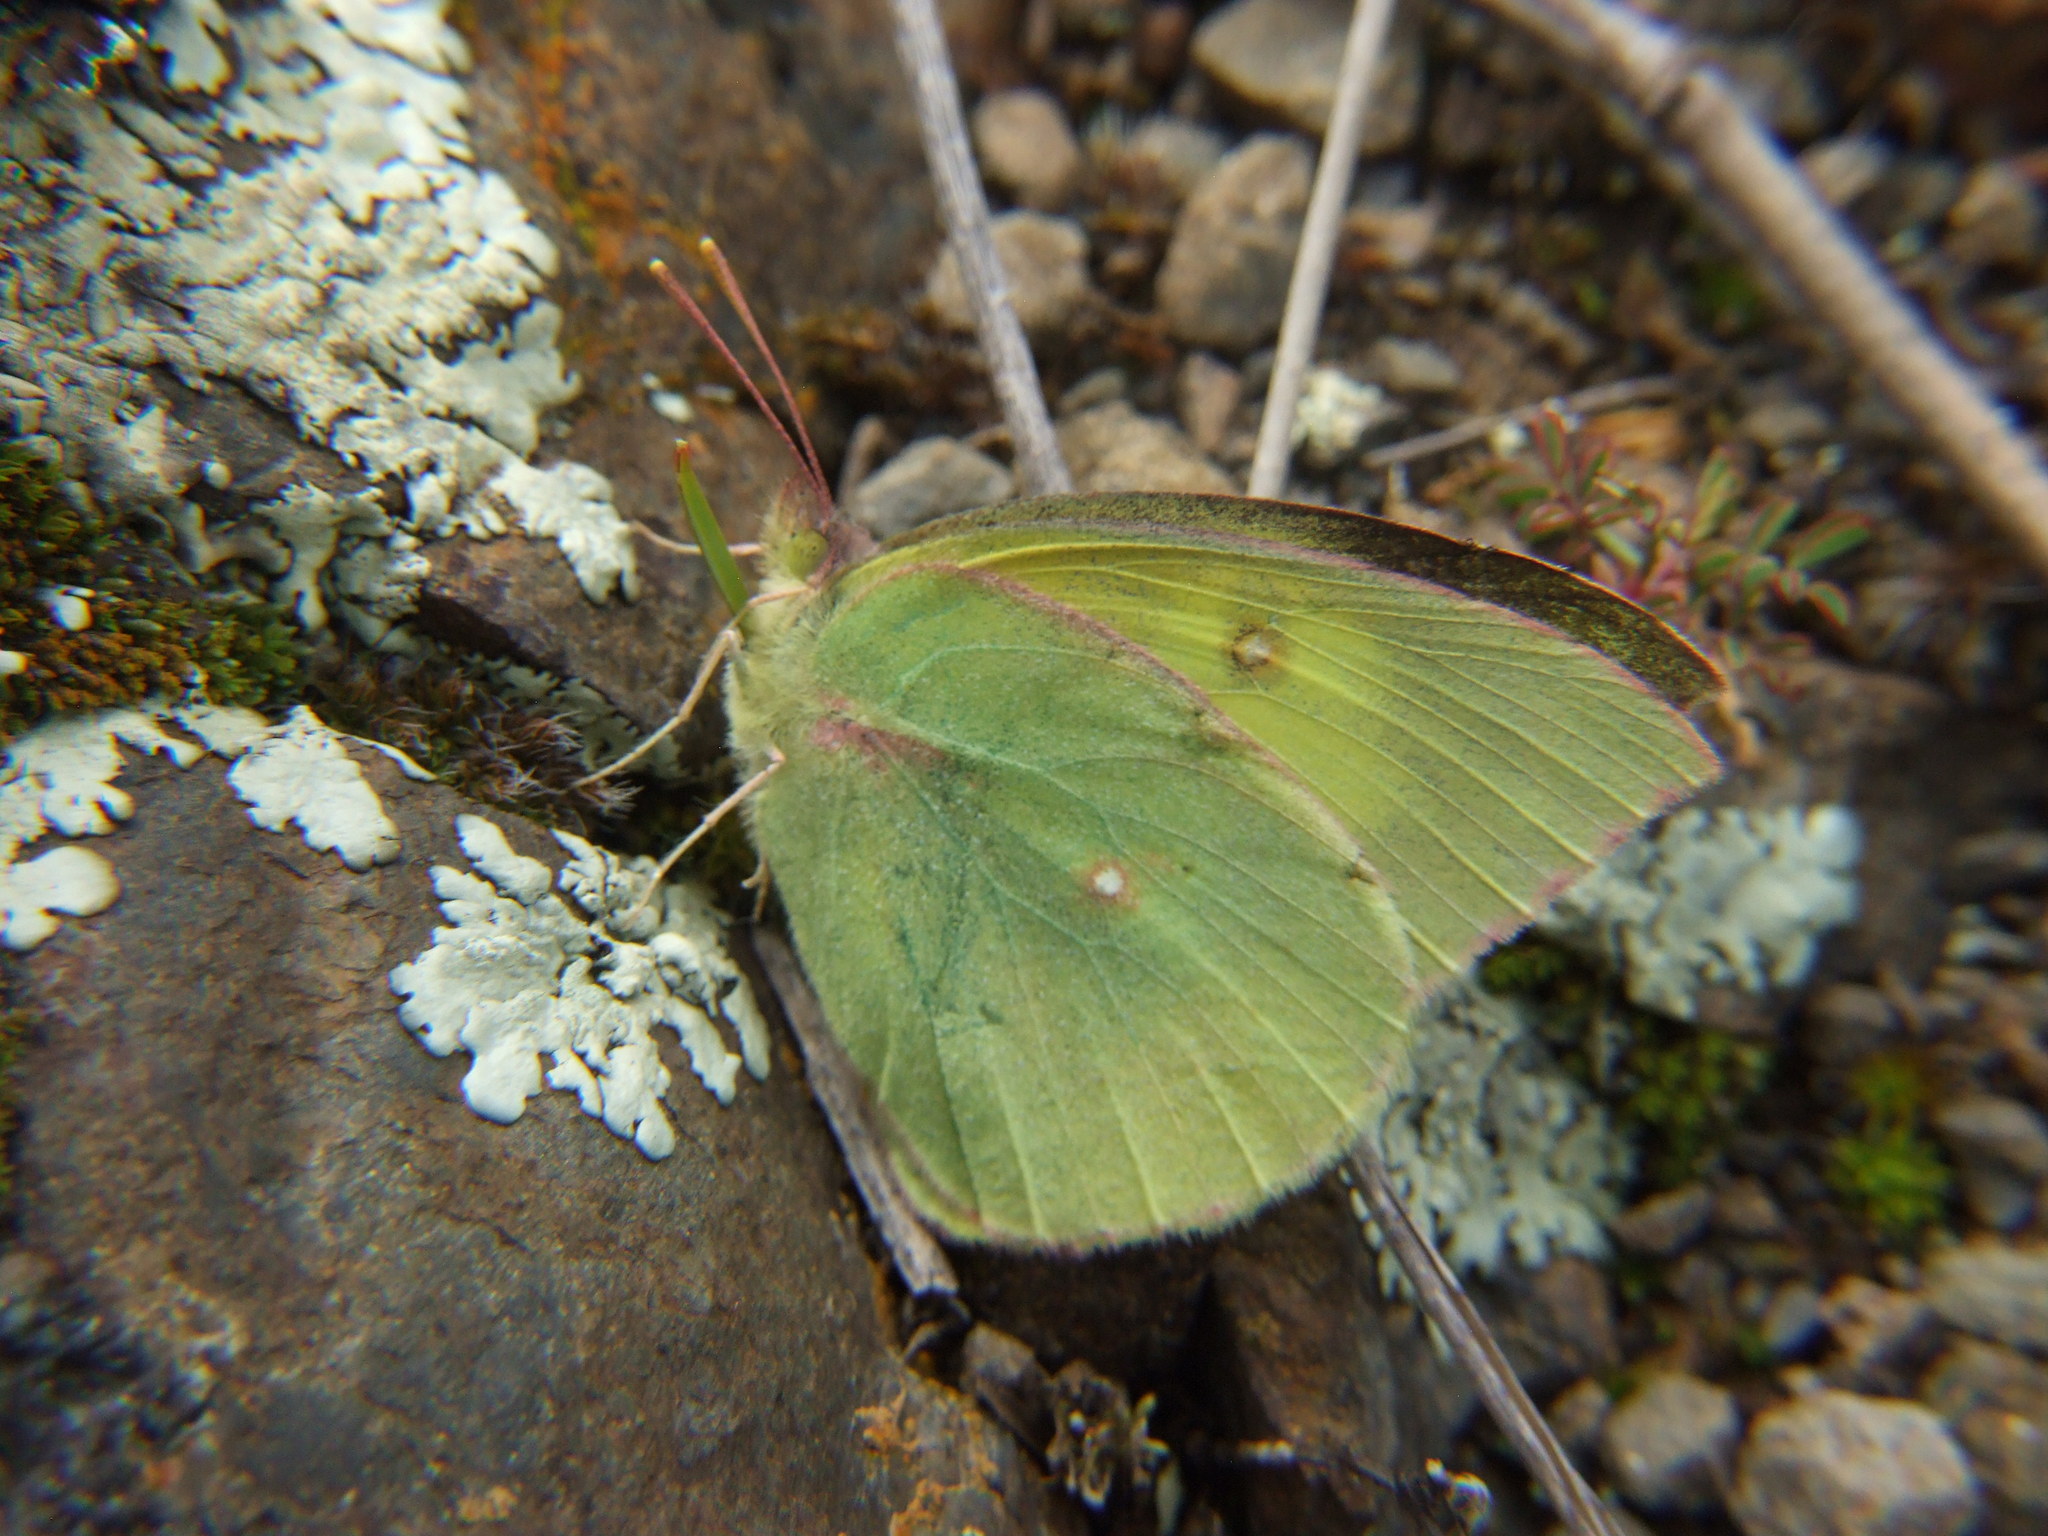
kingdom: Animalia
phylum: Arthropoda
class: Insecta
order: Lepidoptera
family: Pieridae
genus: Zerene
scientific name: Zerene cesonia
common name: Southern dogface
